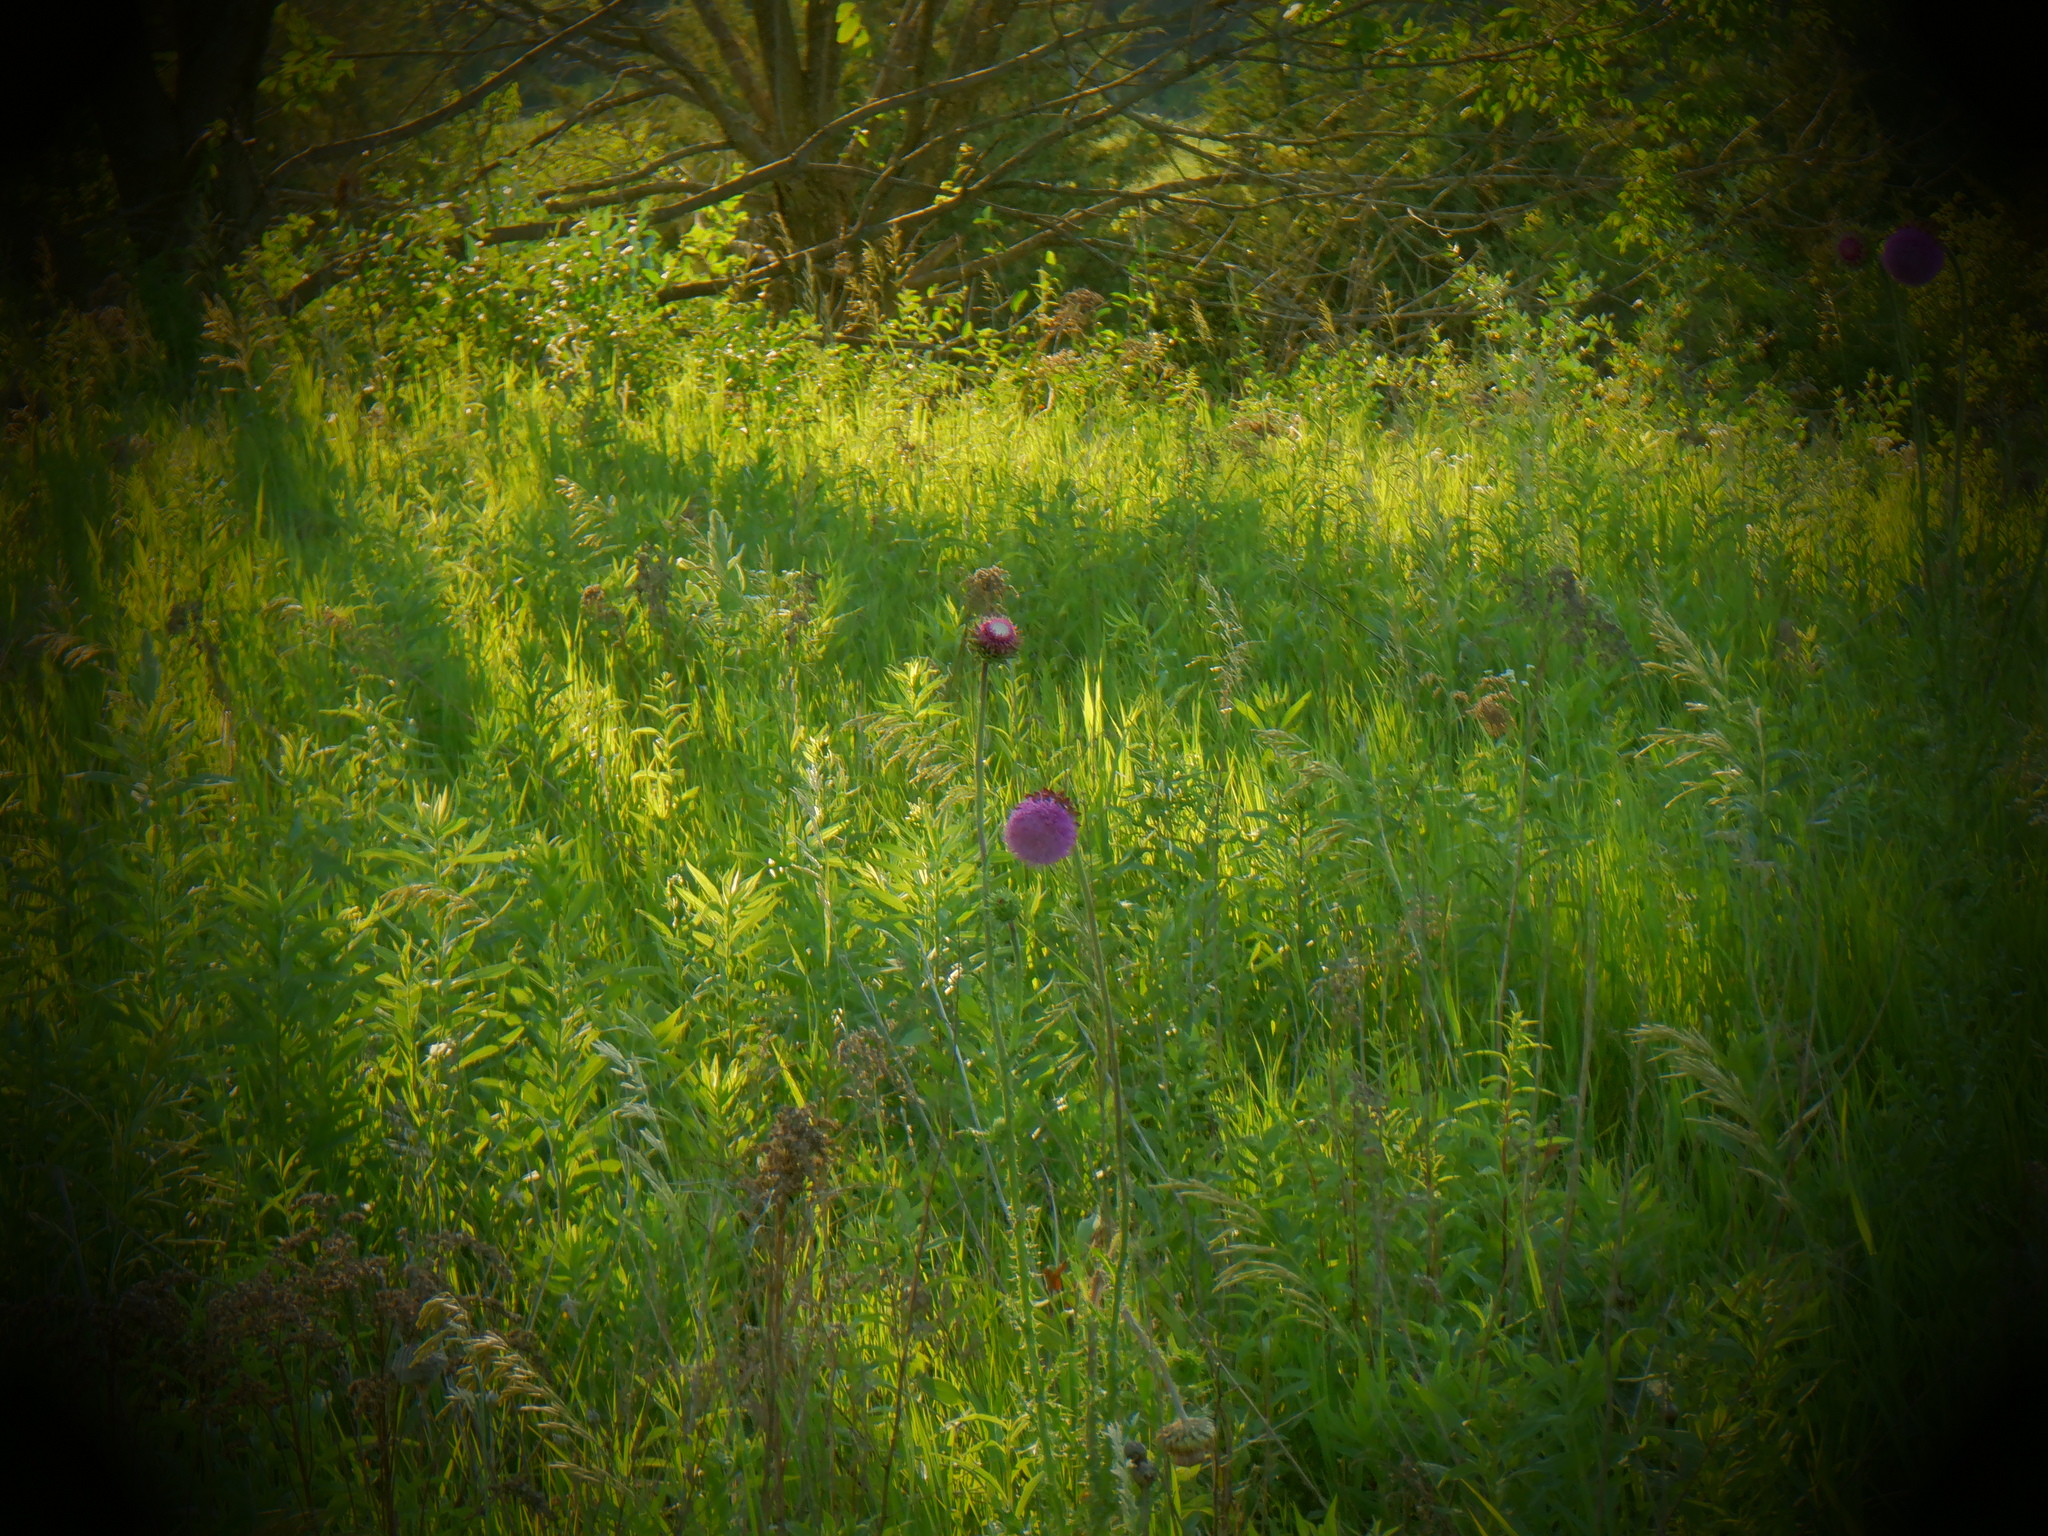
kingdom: Plantae
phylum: Tracheophyta
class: Magnoliopsida
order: Asterales
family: Asteraceae
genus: Carduus
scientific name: Carduus nutans
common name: Musk thistle
